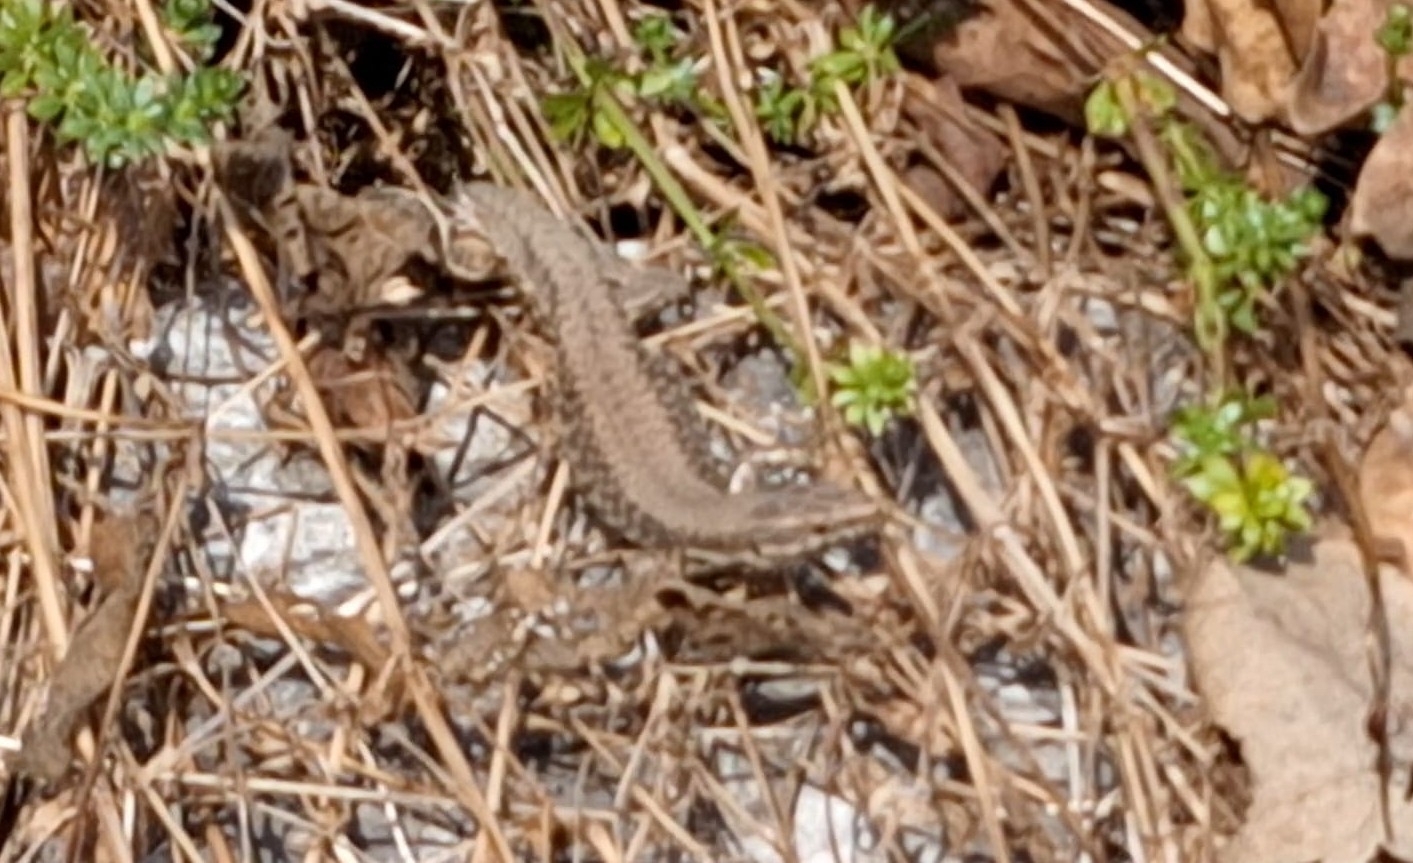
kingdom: Animalia
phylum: Chordata
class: Squamata
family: Lacertidae
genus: Podarcis
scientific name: Podarcis muralis
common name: Common wall lizard
